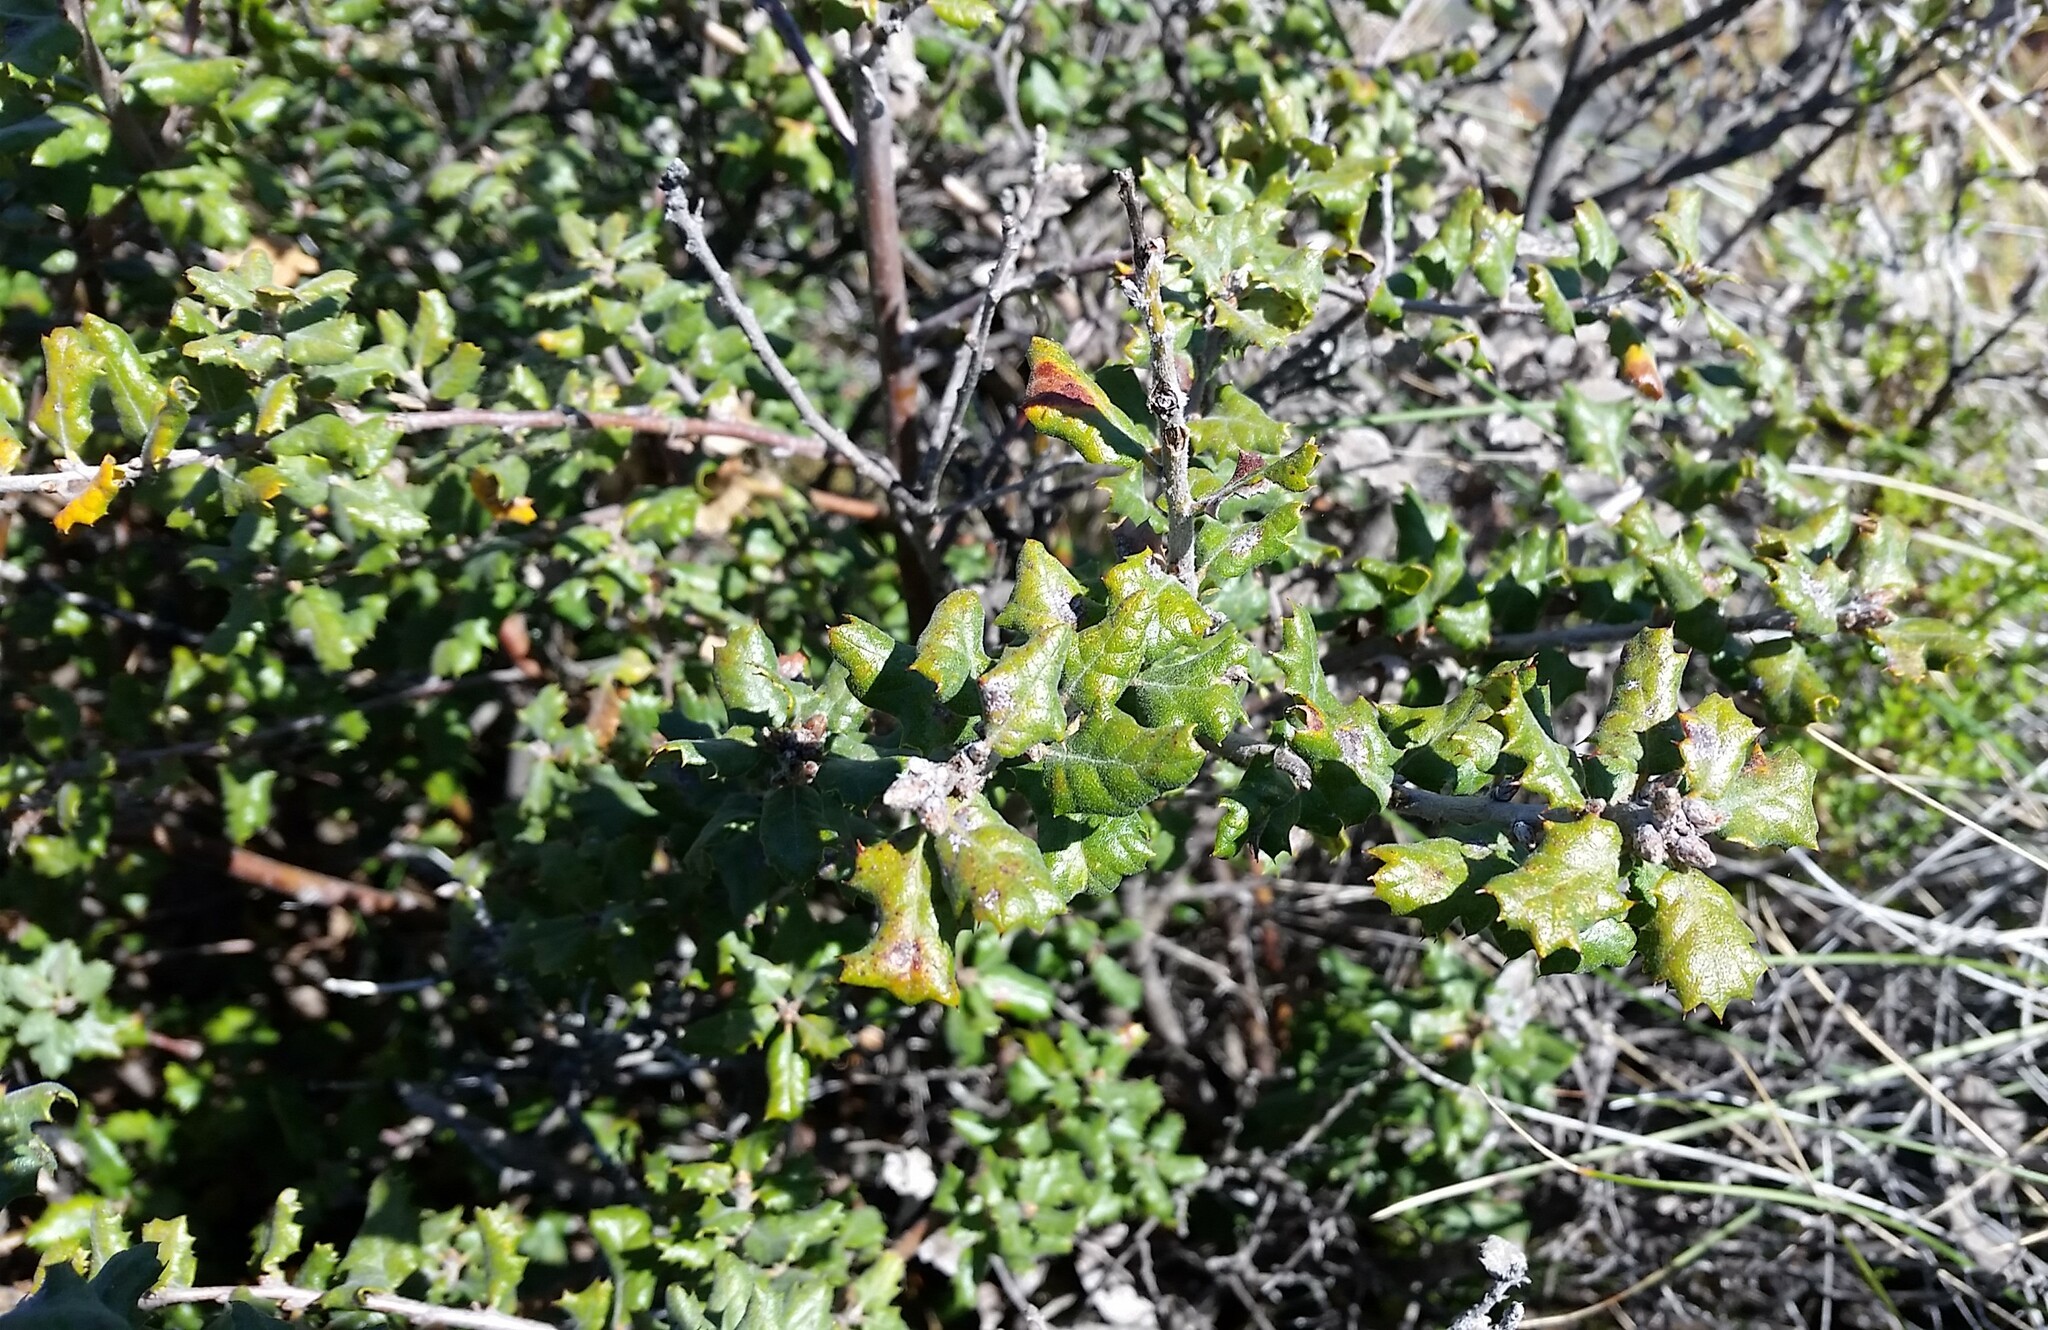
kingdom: Plantae
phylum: Tracheophyta
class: Magnoliopsida
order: Fagales
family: Fagaceae
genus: Quercus
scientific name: Quercus durata
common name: Leather oak
